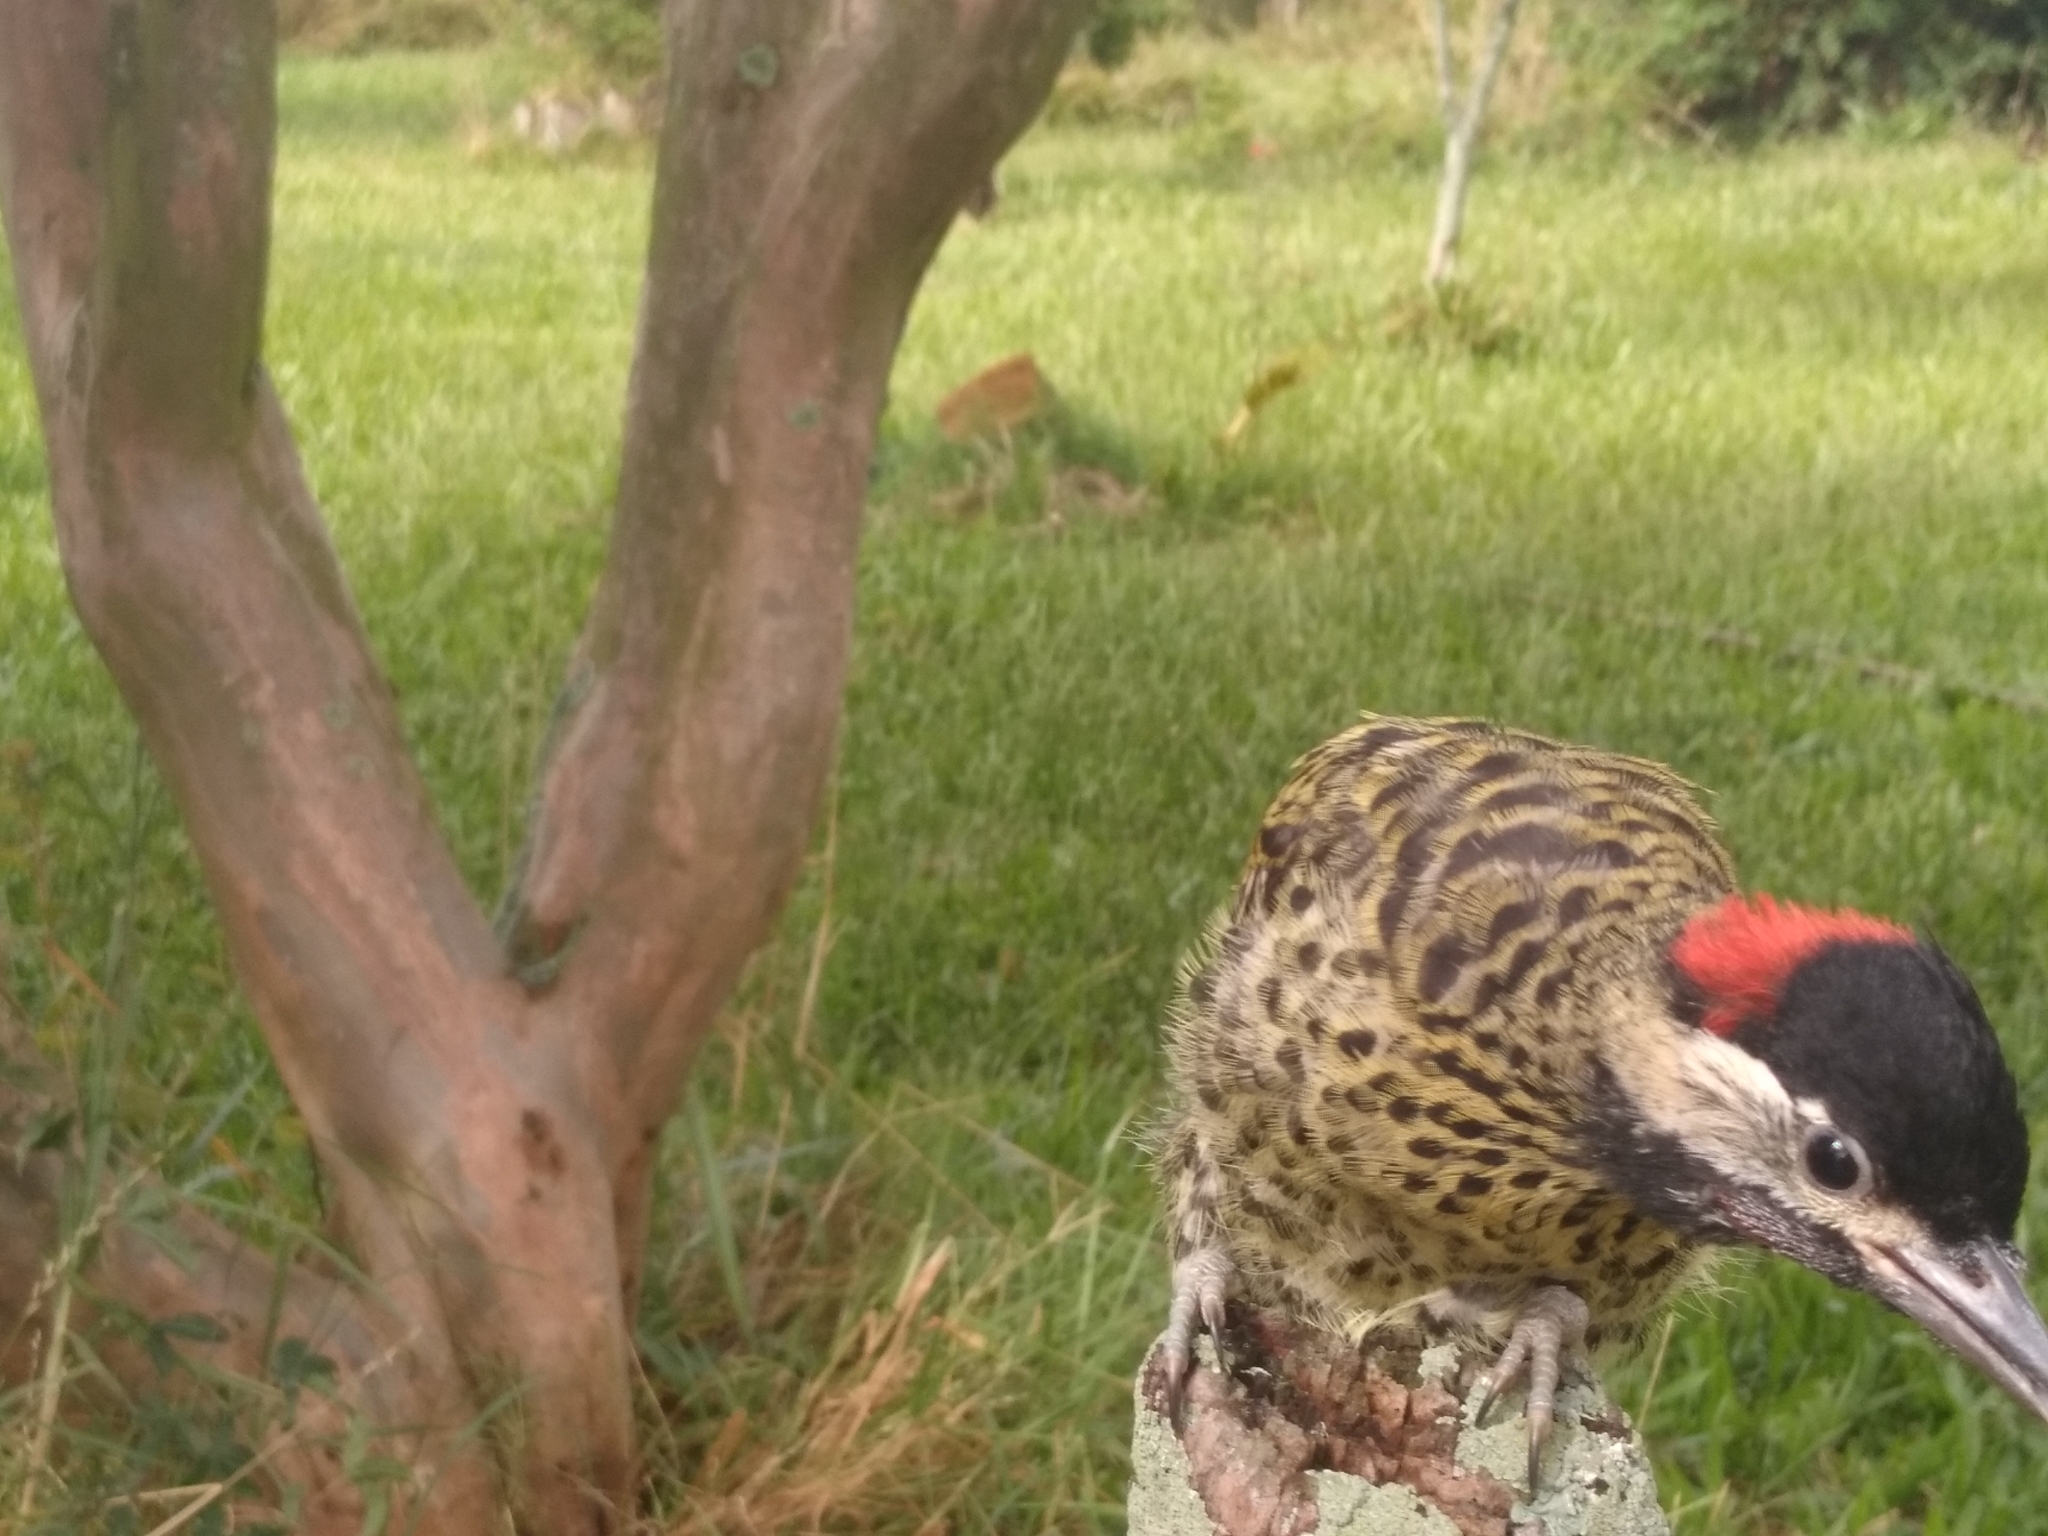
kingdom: Animalia
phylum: Chordata
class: Aves
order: Piciformes
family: Picidae
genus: Colaptes
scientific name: Colaptes melanochloros
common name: Green-barred woodpecker
